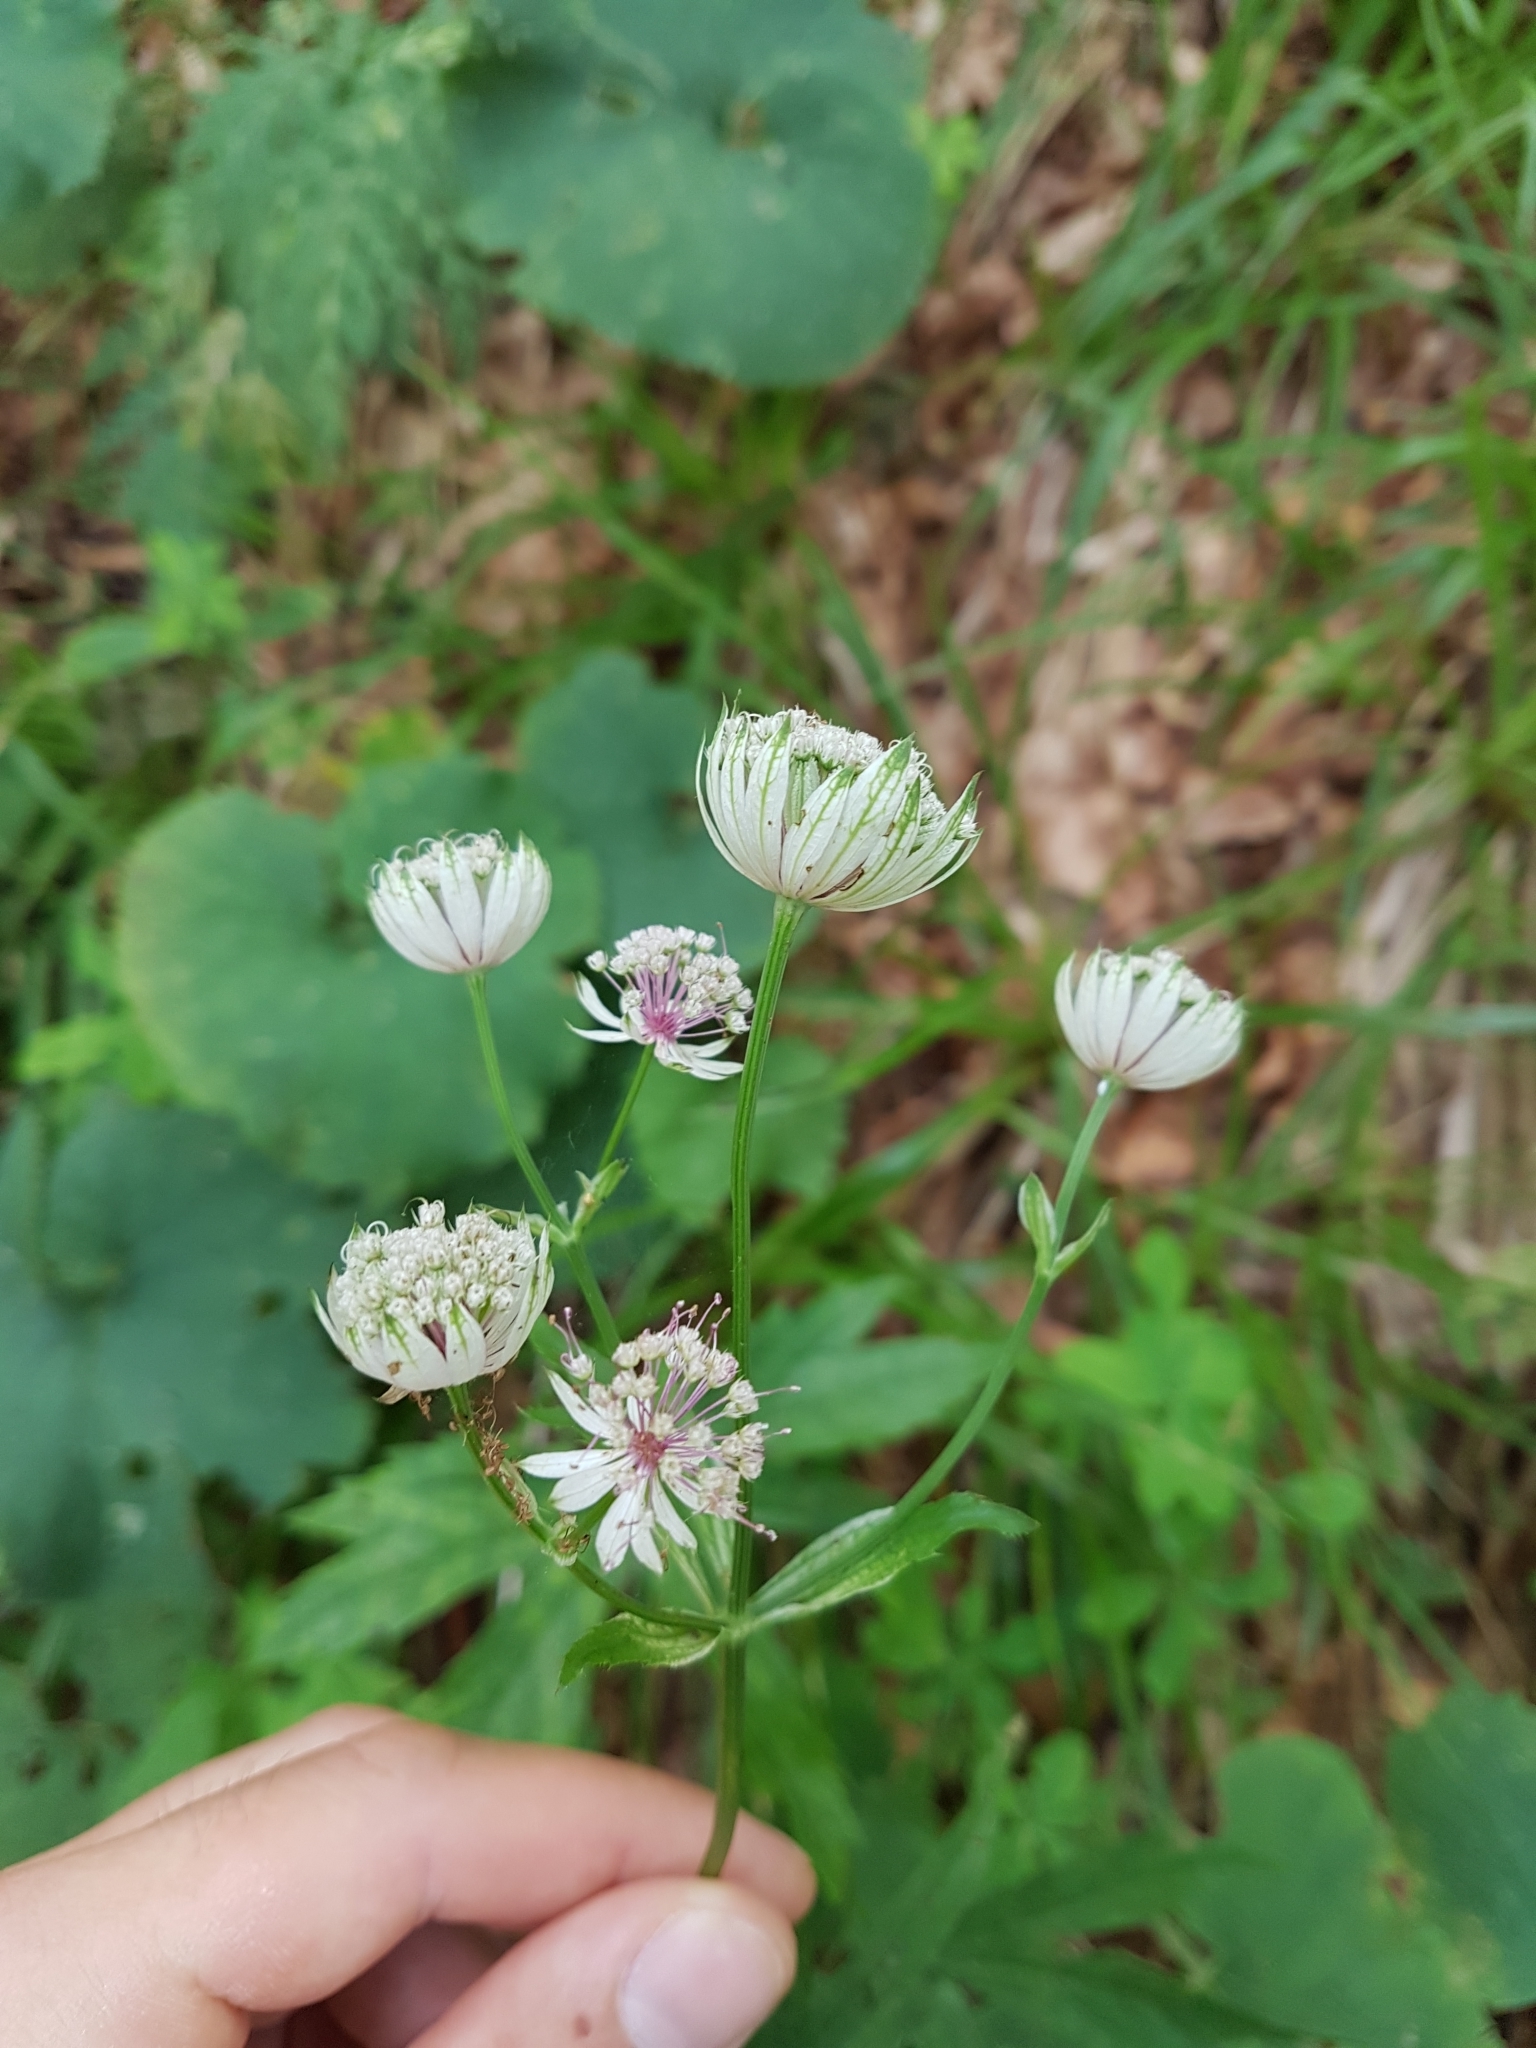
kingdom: Plantae
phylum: Tracheophyta
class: Magnoliopsida
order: Apiales
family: Apiaceae
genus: Astrantia
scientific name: Astrantia major
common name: Greater masterwort
